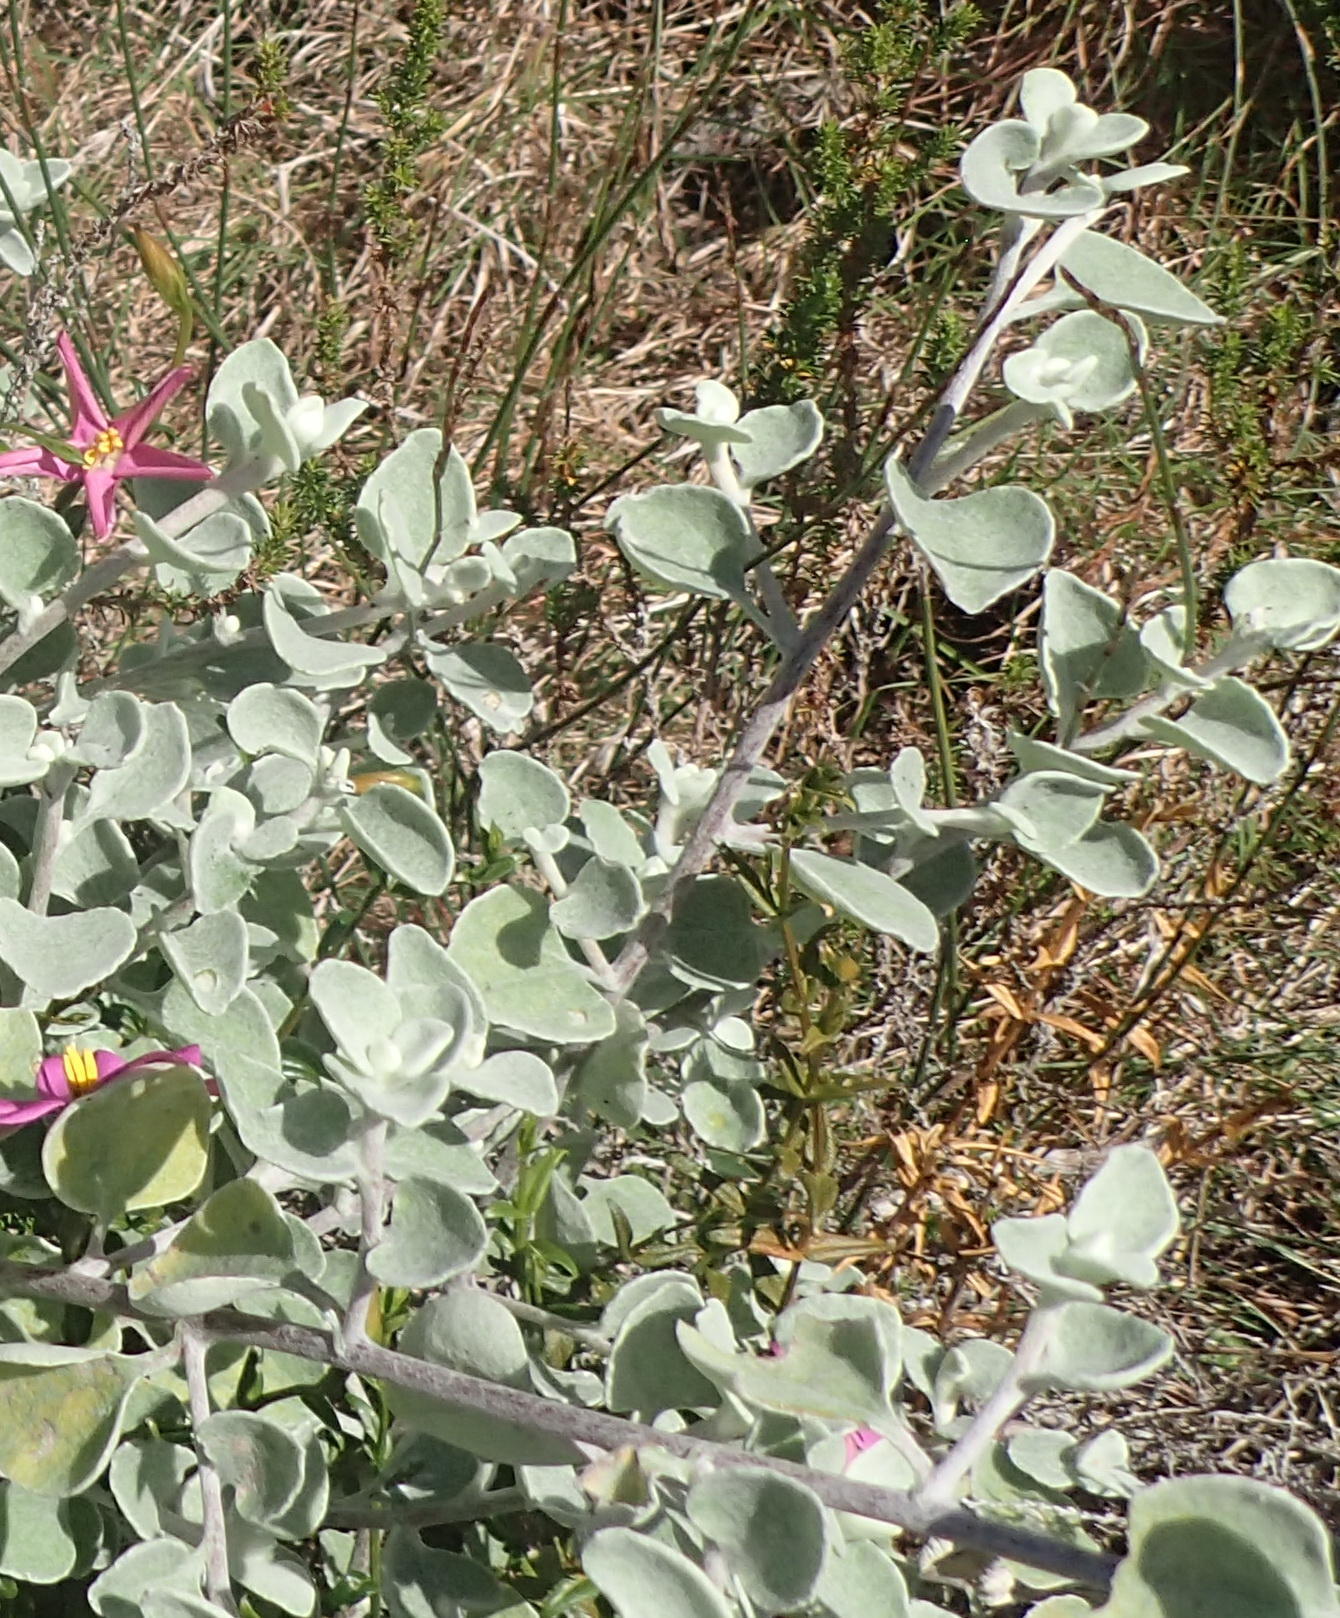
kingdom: Plantae
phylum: Tracheophyta
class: Magnoliopsida
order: Asterales
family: Asteraceae
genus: Helichrysum
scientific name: Helichrysum petiolare
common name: Licorice-plant
